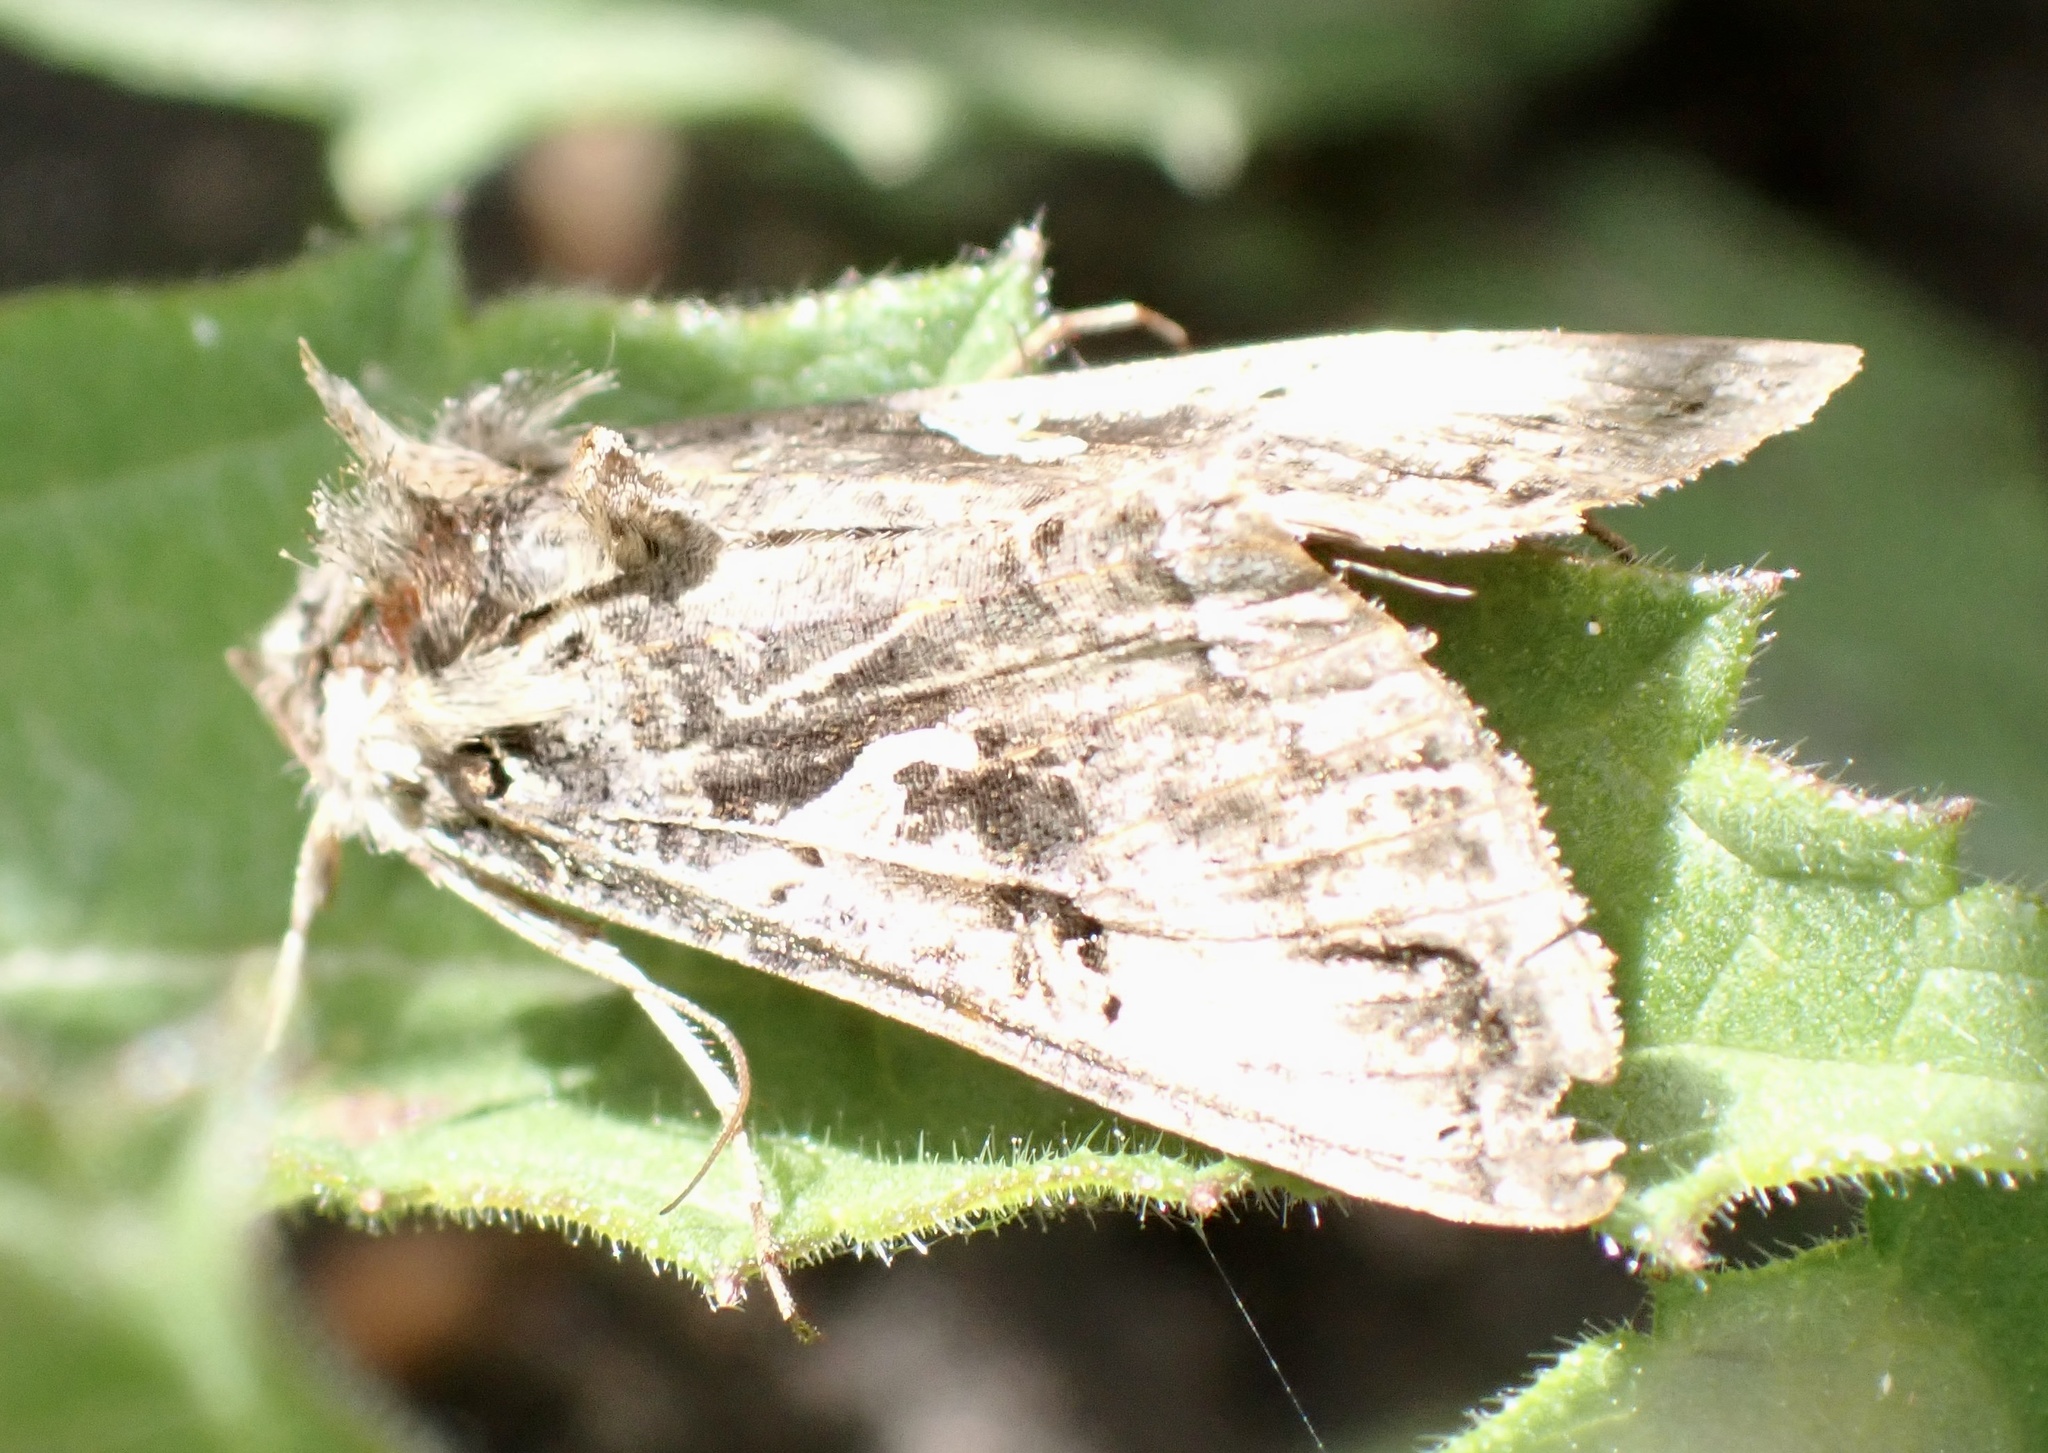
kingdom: Animalia
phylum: Arthropoda
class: Insecta
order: Lepidoptera
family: Noctuidae
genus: Autographa
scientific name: Autographa gamma
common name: Silver y
